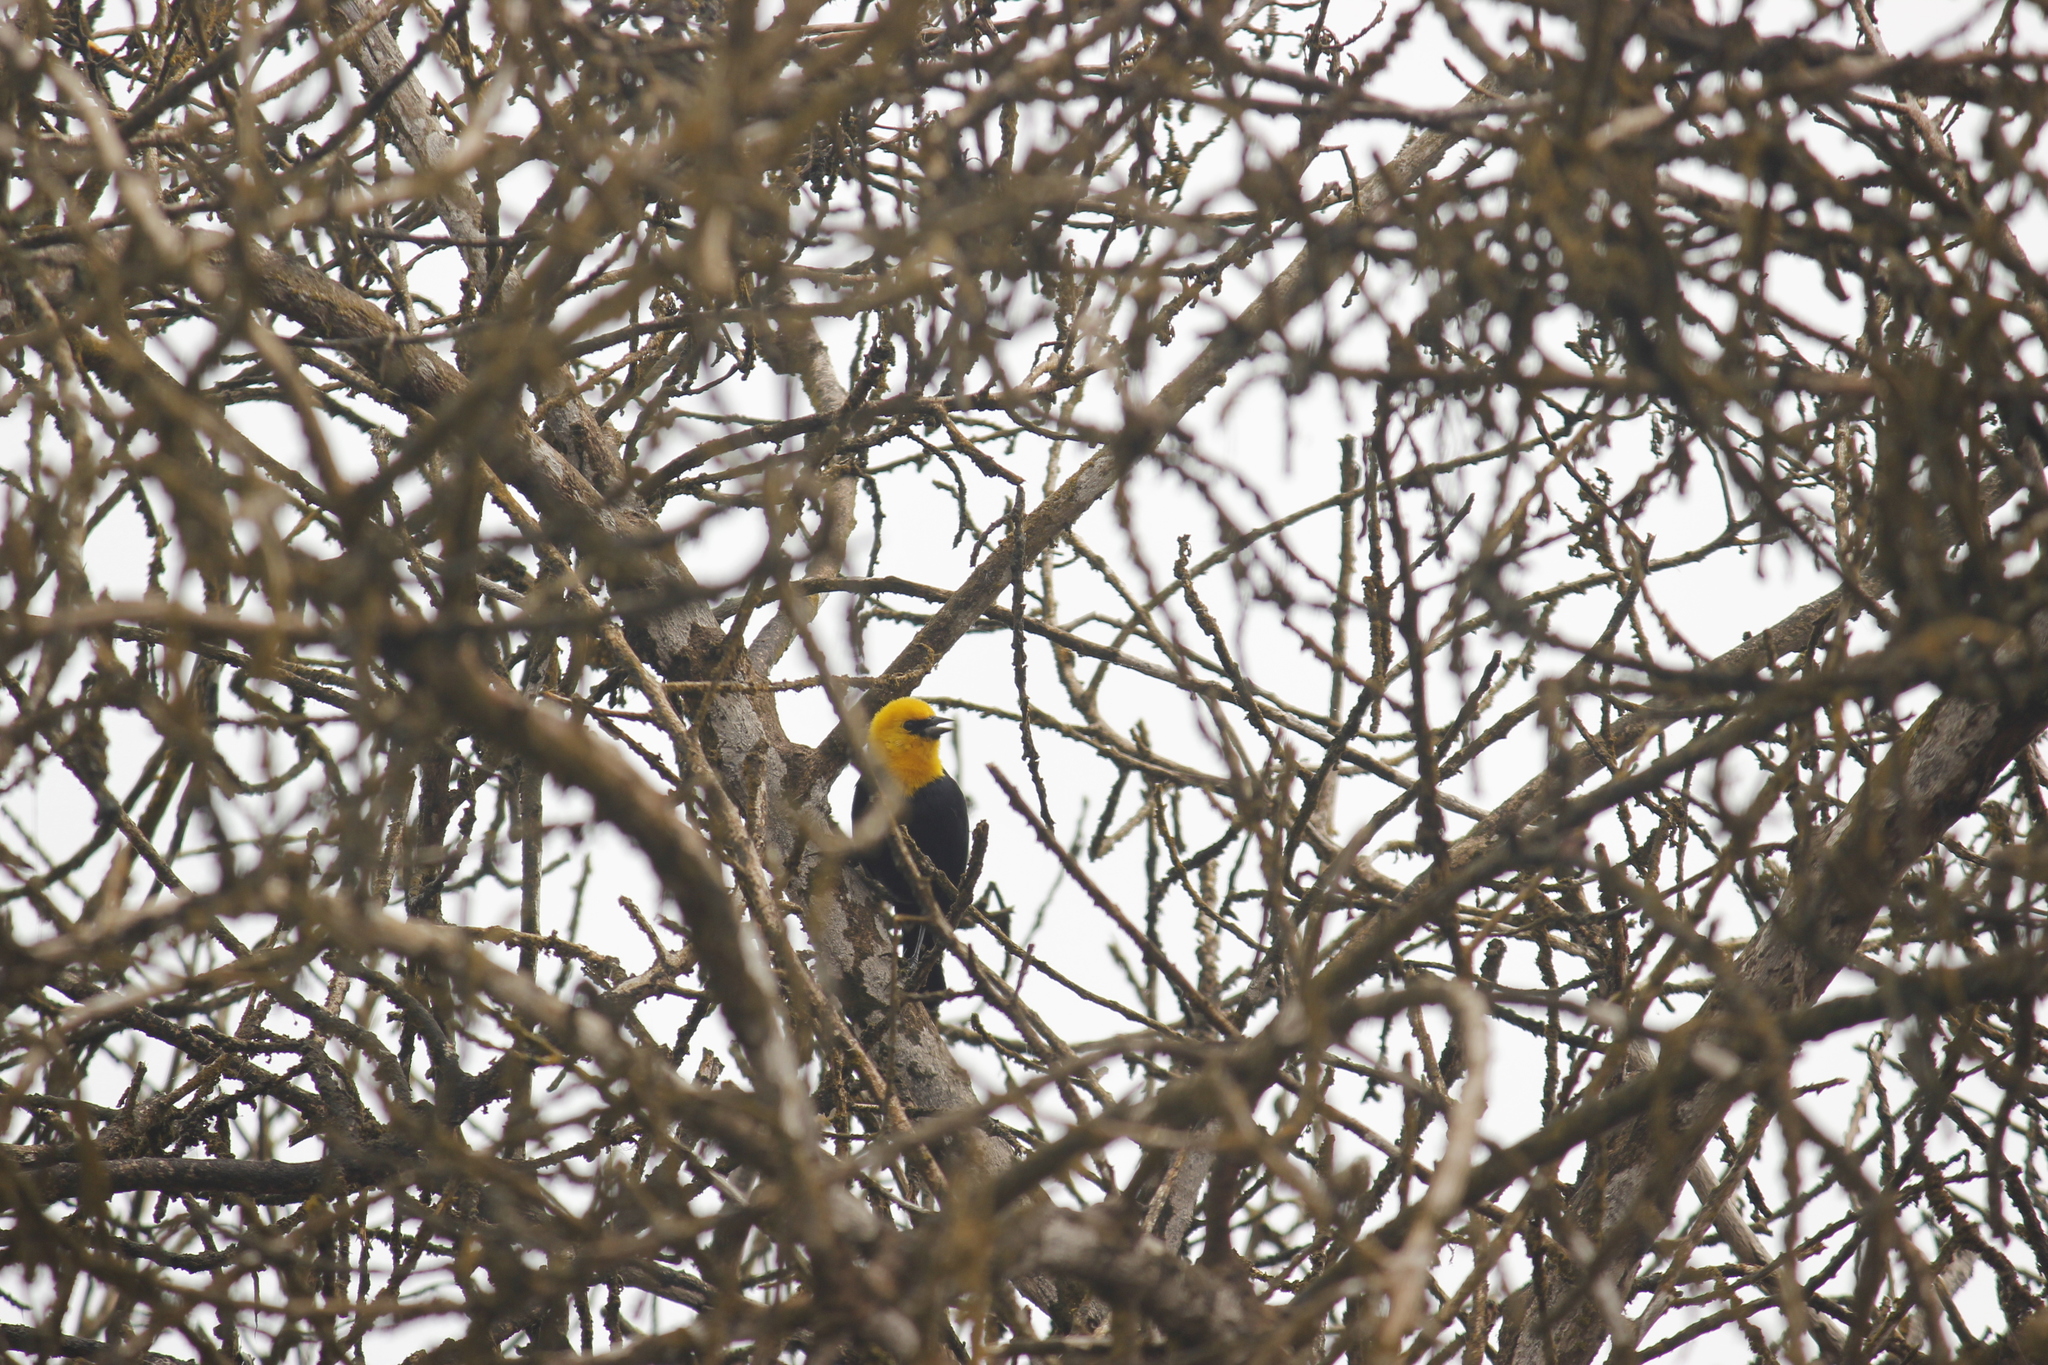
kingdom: Animalia
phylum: Chordata
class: Aves
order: Passeriformes
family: Icteridae
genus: Chrysomus
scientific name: Chrysomus icterocephalus
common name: Yellow-hooded blackbird
